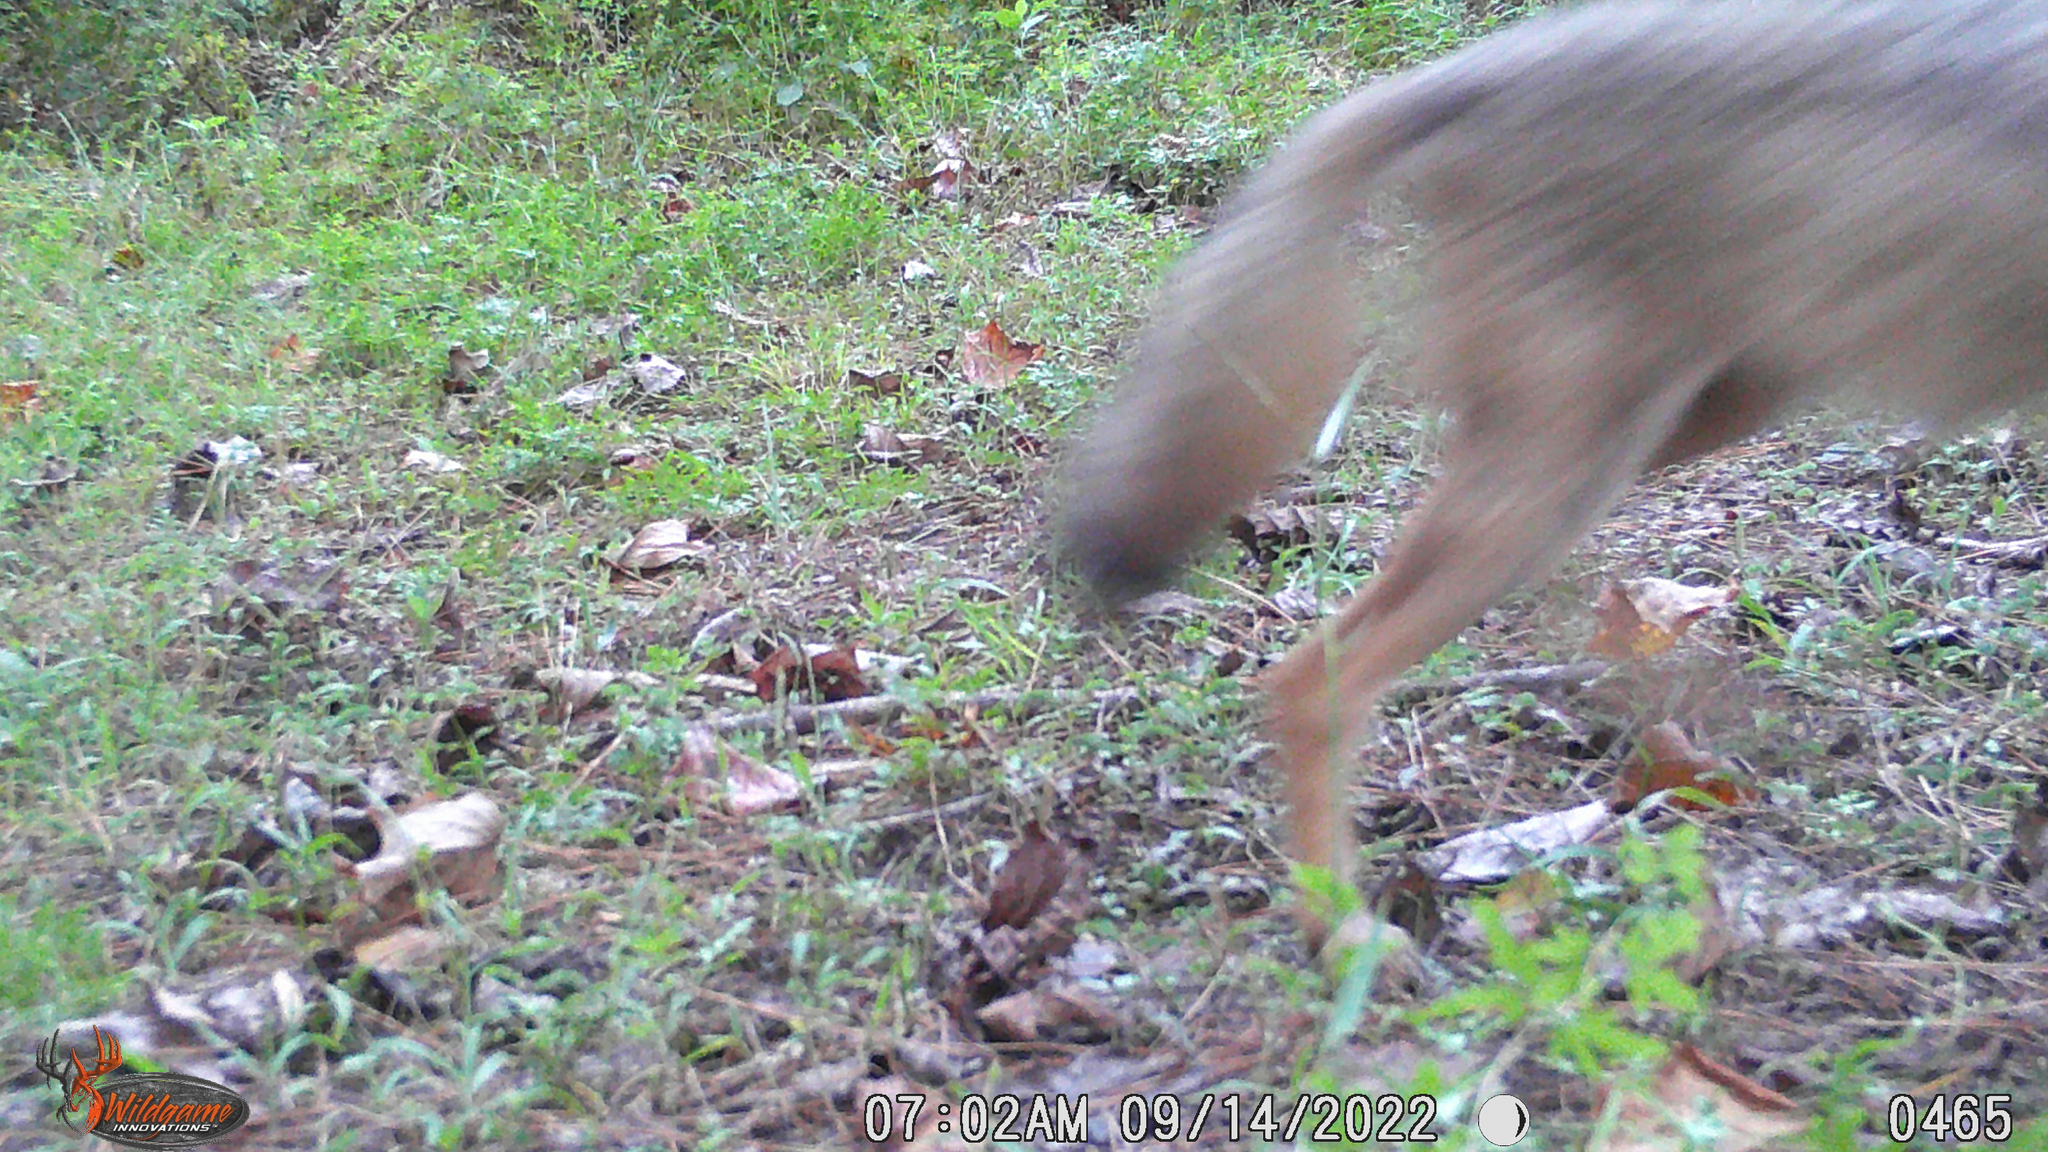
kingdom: Animalia
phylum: Chordata
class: Mammalia
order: Carnivora
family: Canidae
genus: Canis
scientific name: Canis latrans
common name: Coyote
